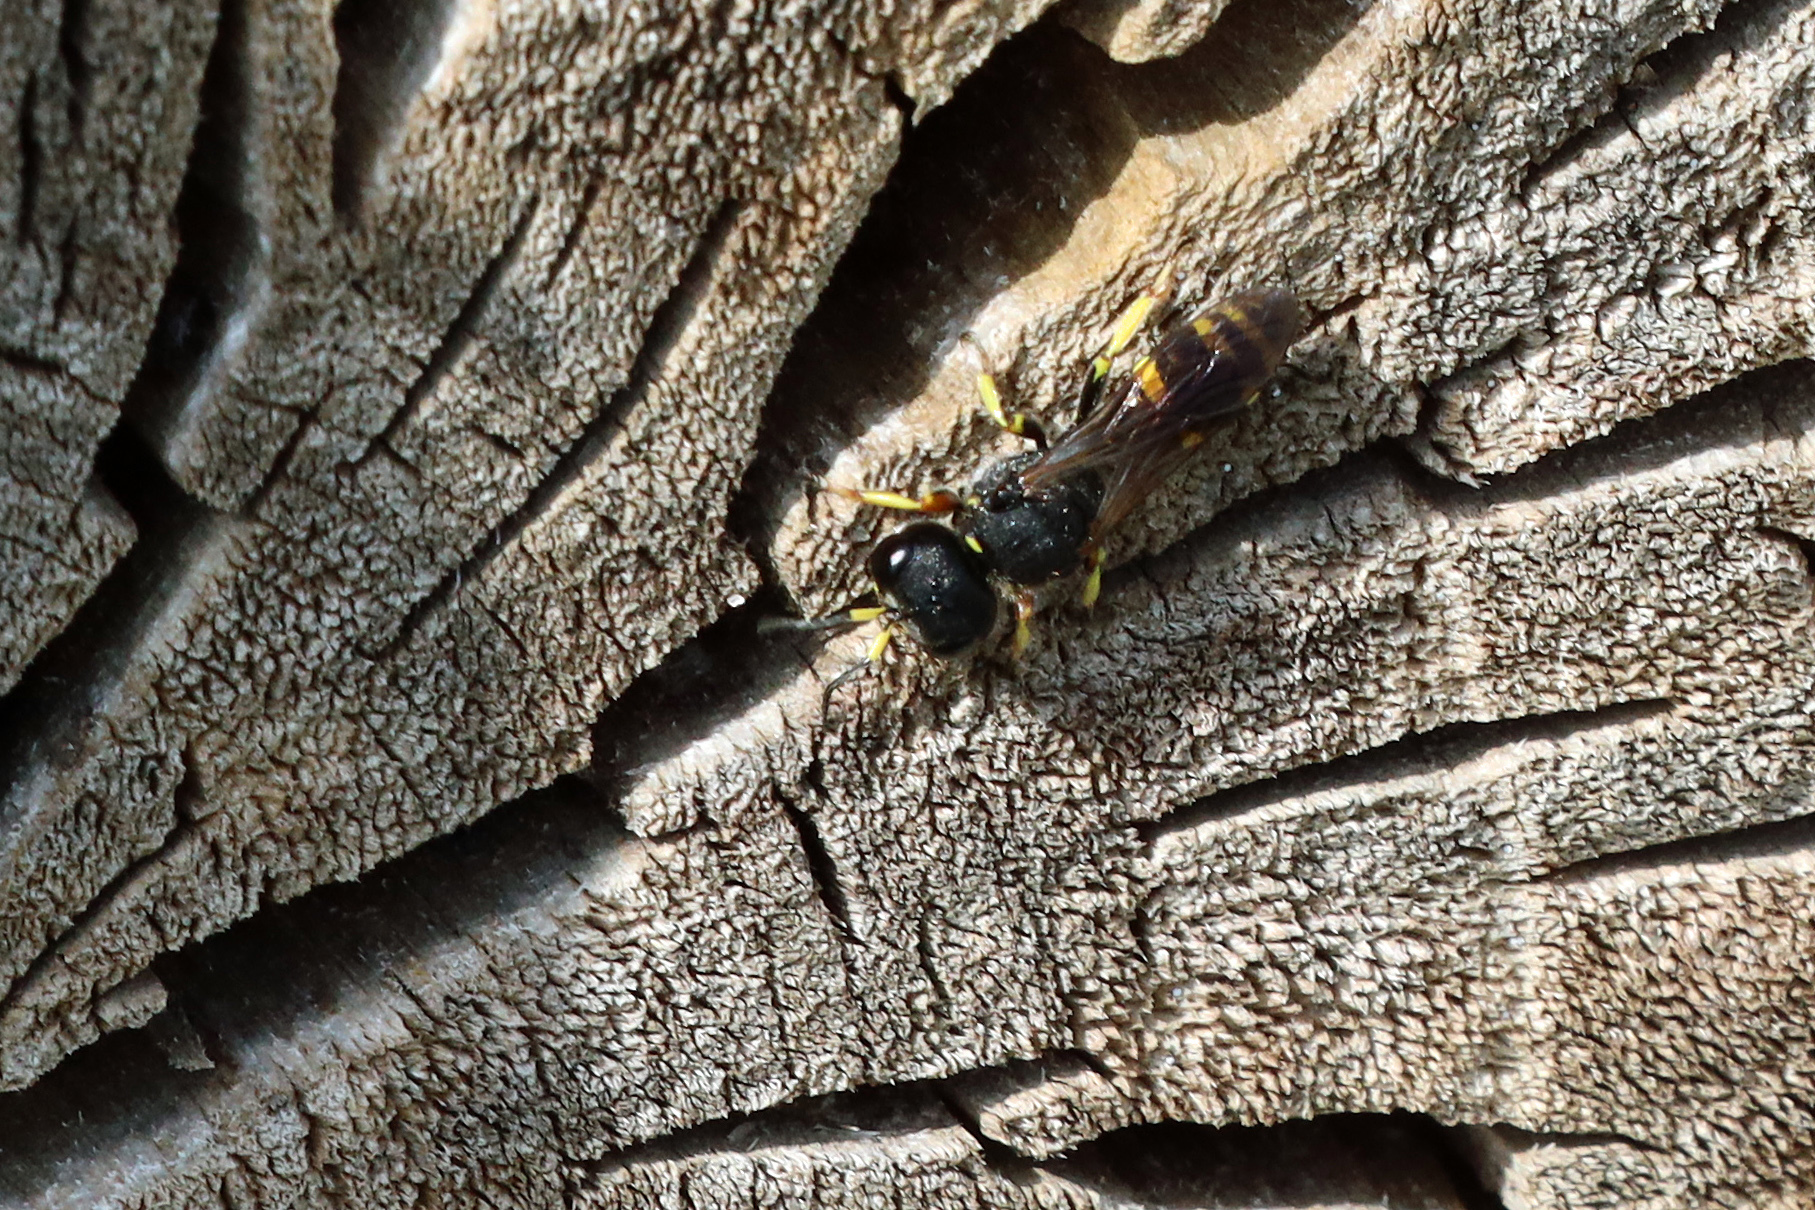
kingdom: Animalia
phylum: Arthropoda
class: Insecta
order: Hymenoptera
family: Crabronidae
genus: Ectemnius
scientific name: Ectemnius continuus
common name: Common ectemnius
